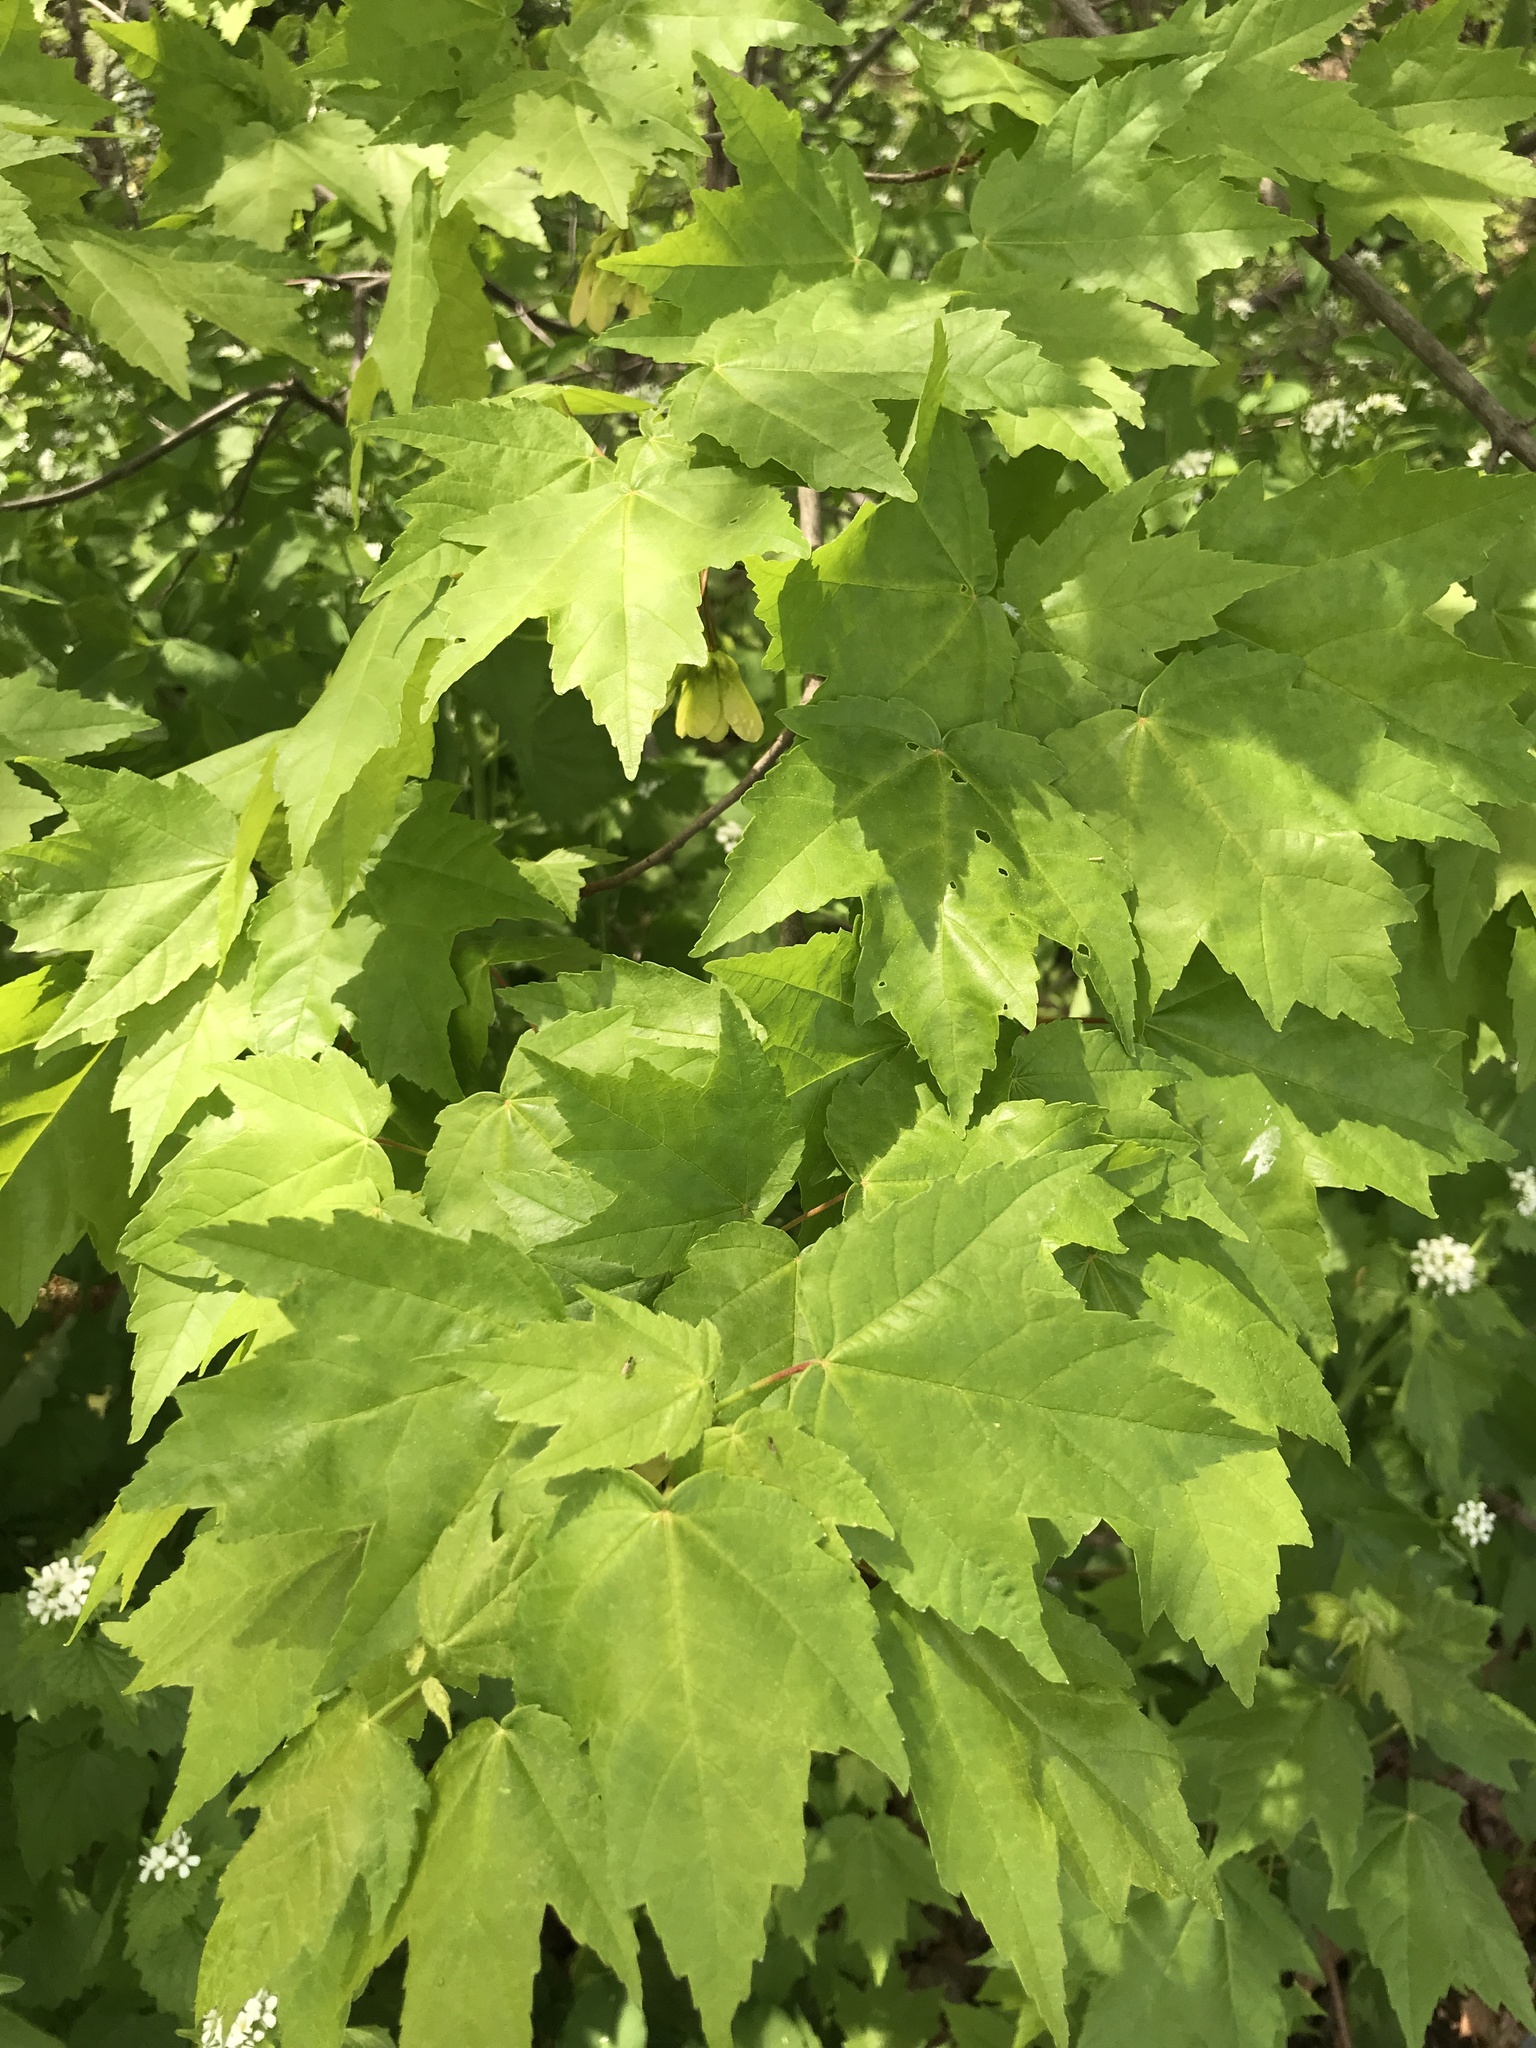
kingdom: Plantae
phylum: Tracheophyta
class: Magnoliopsida
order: Sapindales
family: Sapindaceae
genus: Acer
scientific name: Acer rubrum
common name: Red maple
